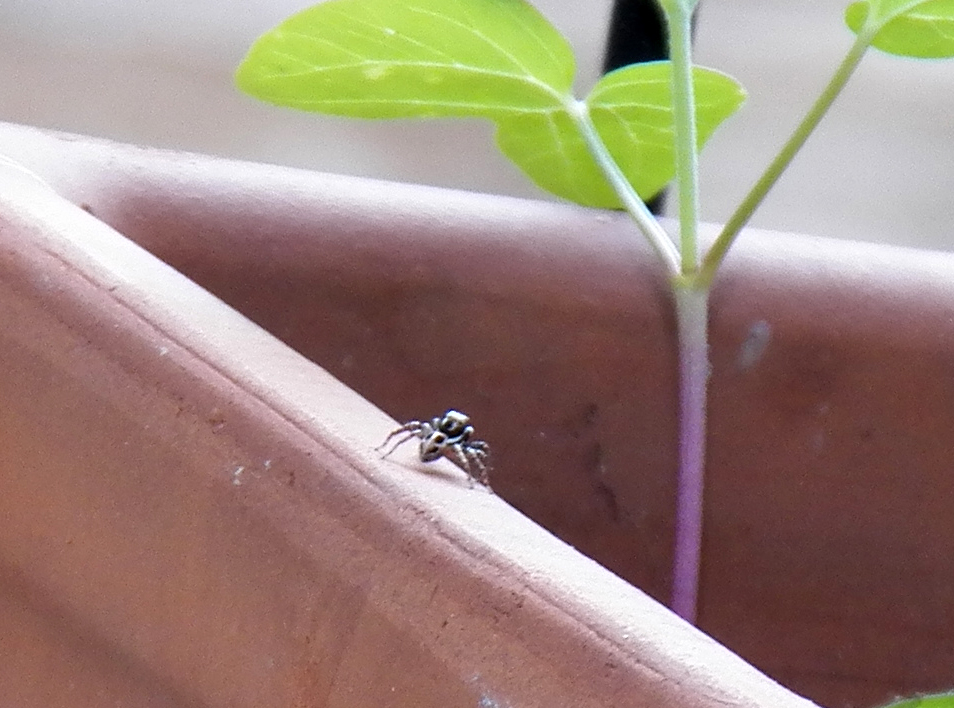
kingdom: Animalia
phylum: Arthropoda
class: Arachnida
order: Araneae
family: Salticidae
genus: Anasaitis
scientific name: Anasaitis canosa
